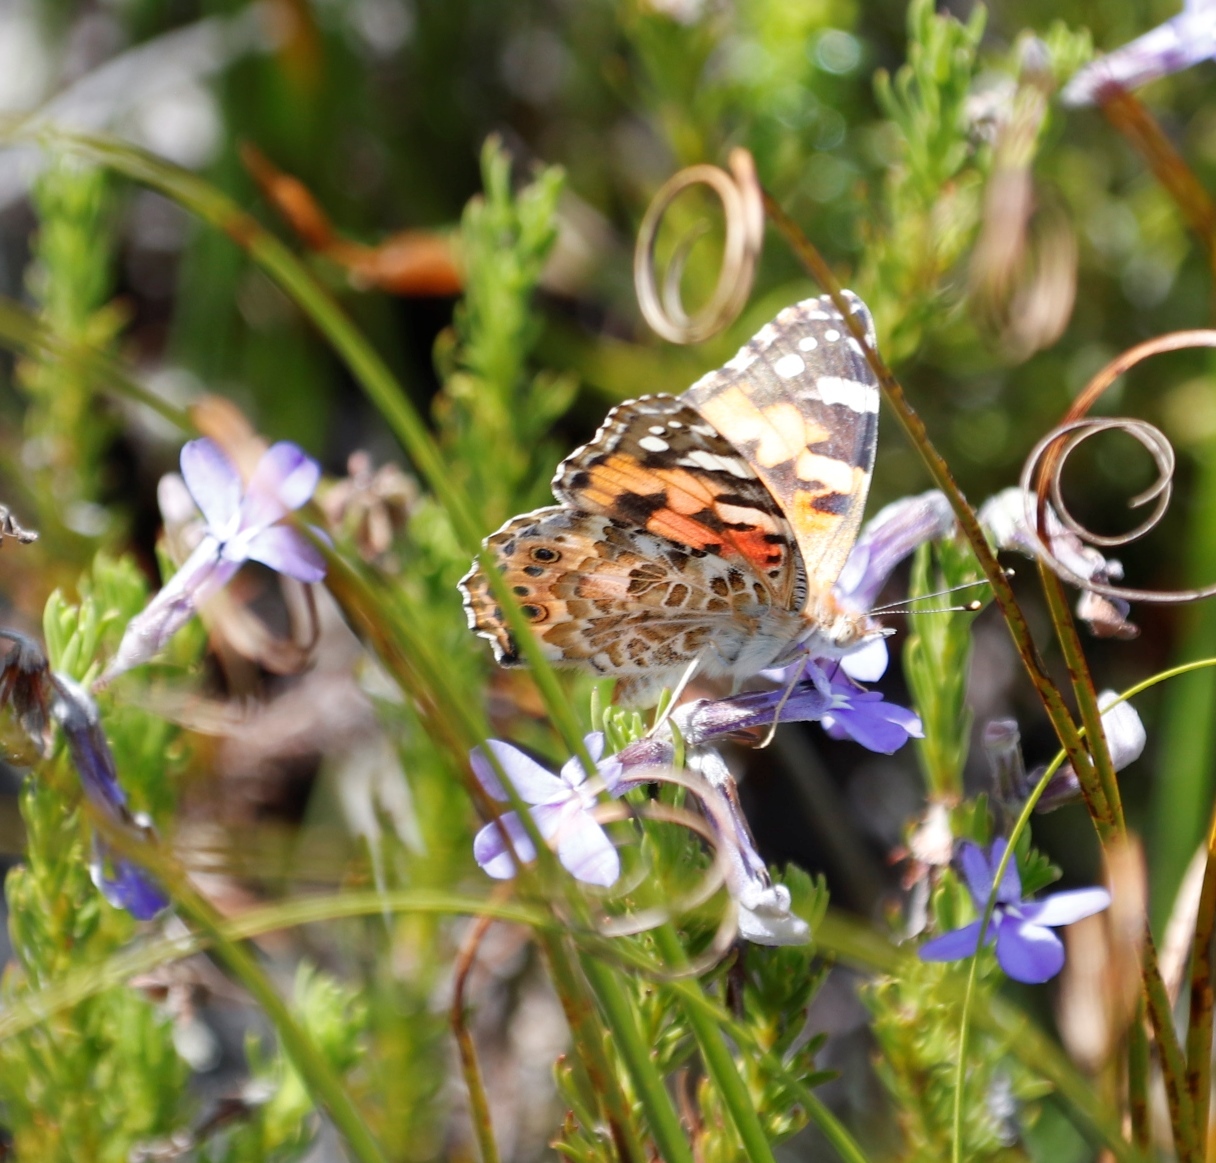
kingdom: Animalia
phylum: Arthropoda
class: Insecta
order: Lepidoptera
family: Nymphalidae
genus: Vanessa
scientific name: Vanessa cardui
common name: Painted lady
